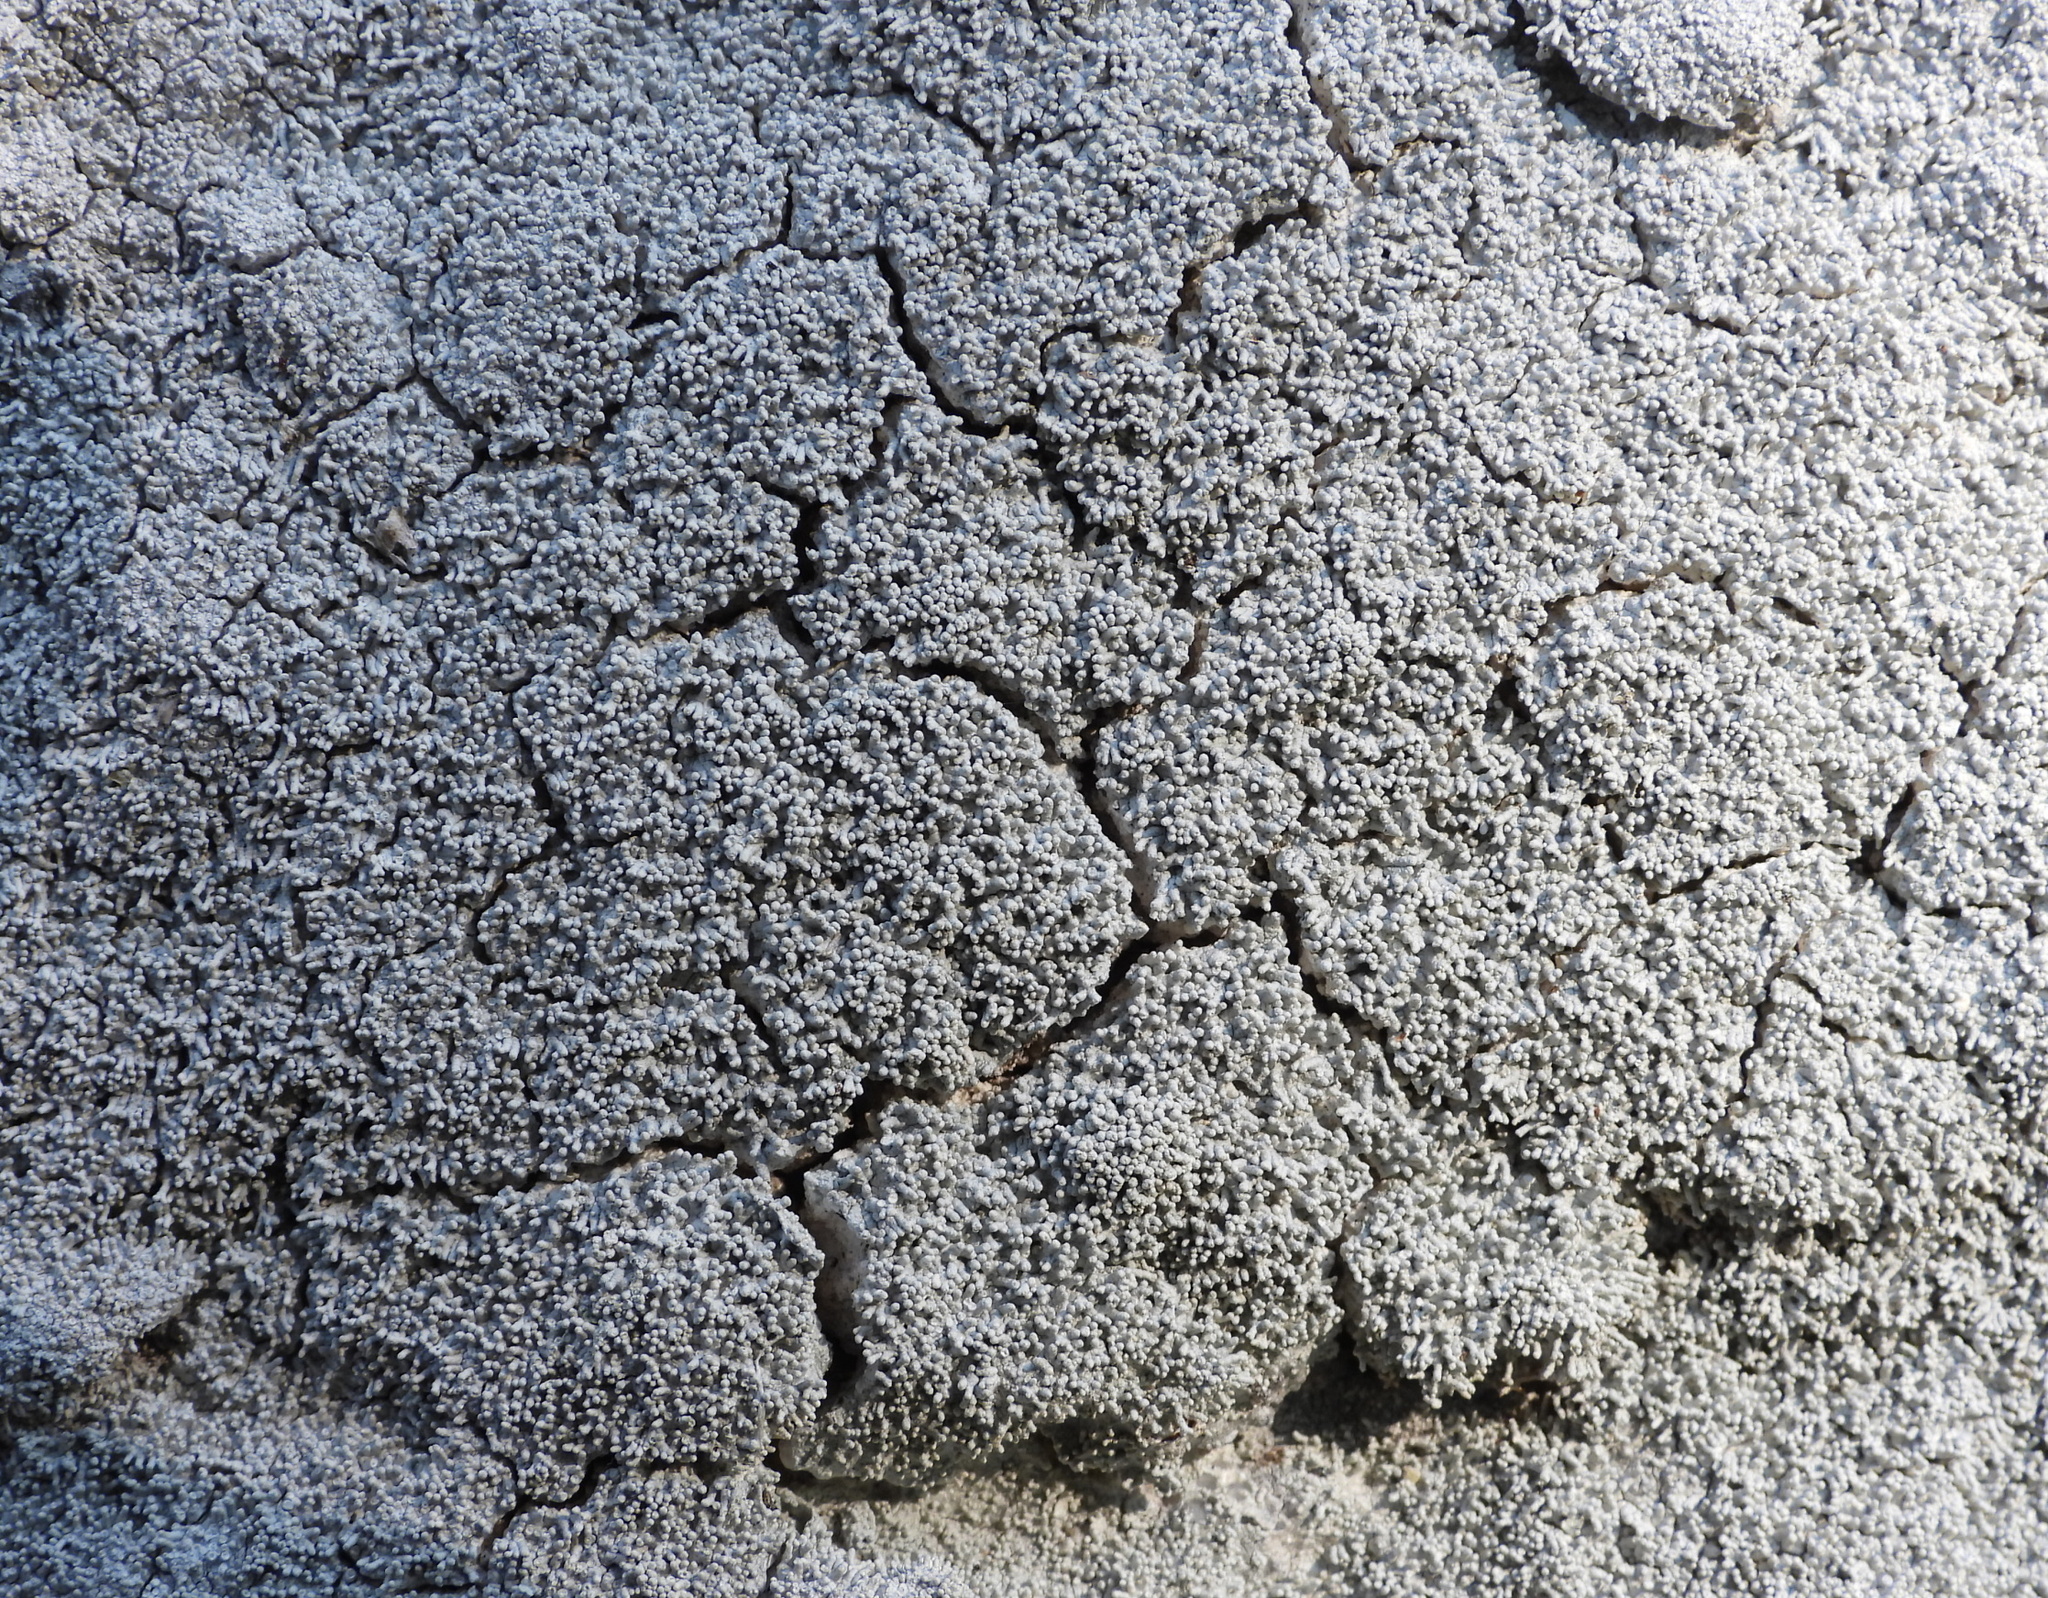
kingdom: Fungi
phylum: Ascomycota
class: Lecanoromycetes
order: Pertusariales
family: Pertusariaceae
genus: Lepra
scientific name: Lepra corallina
